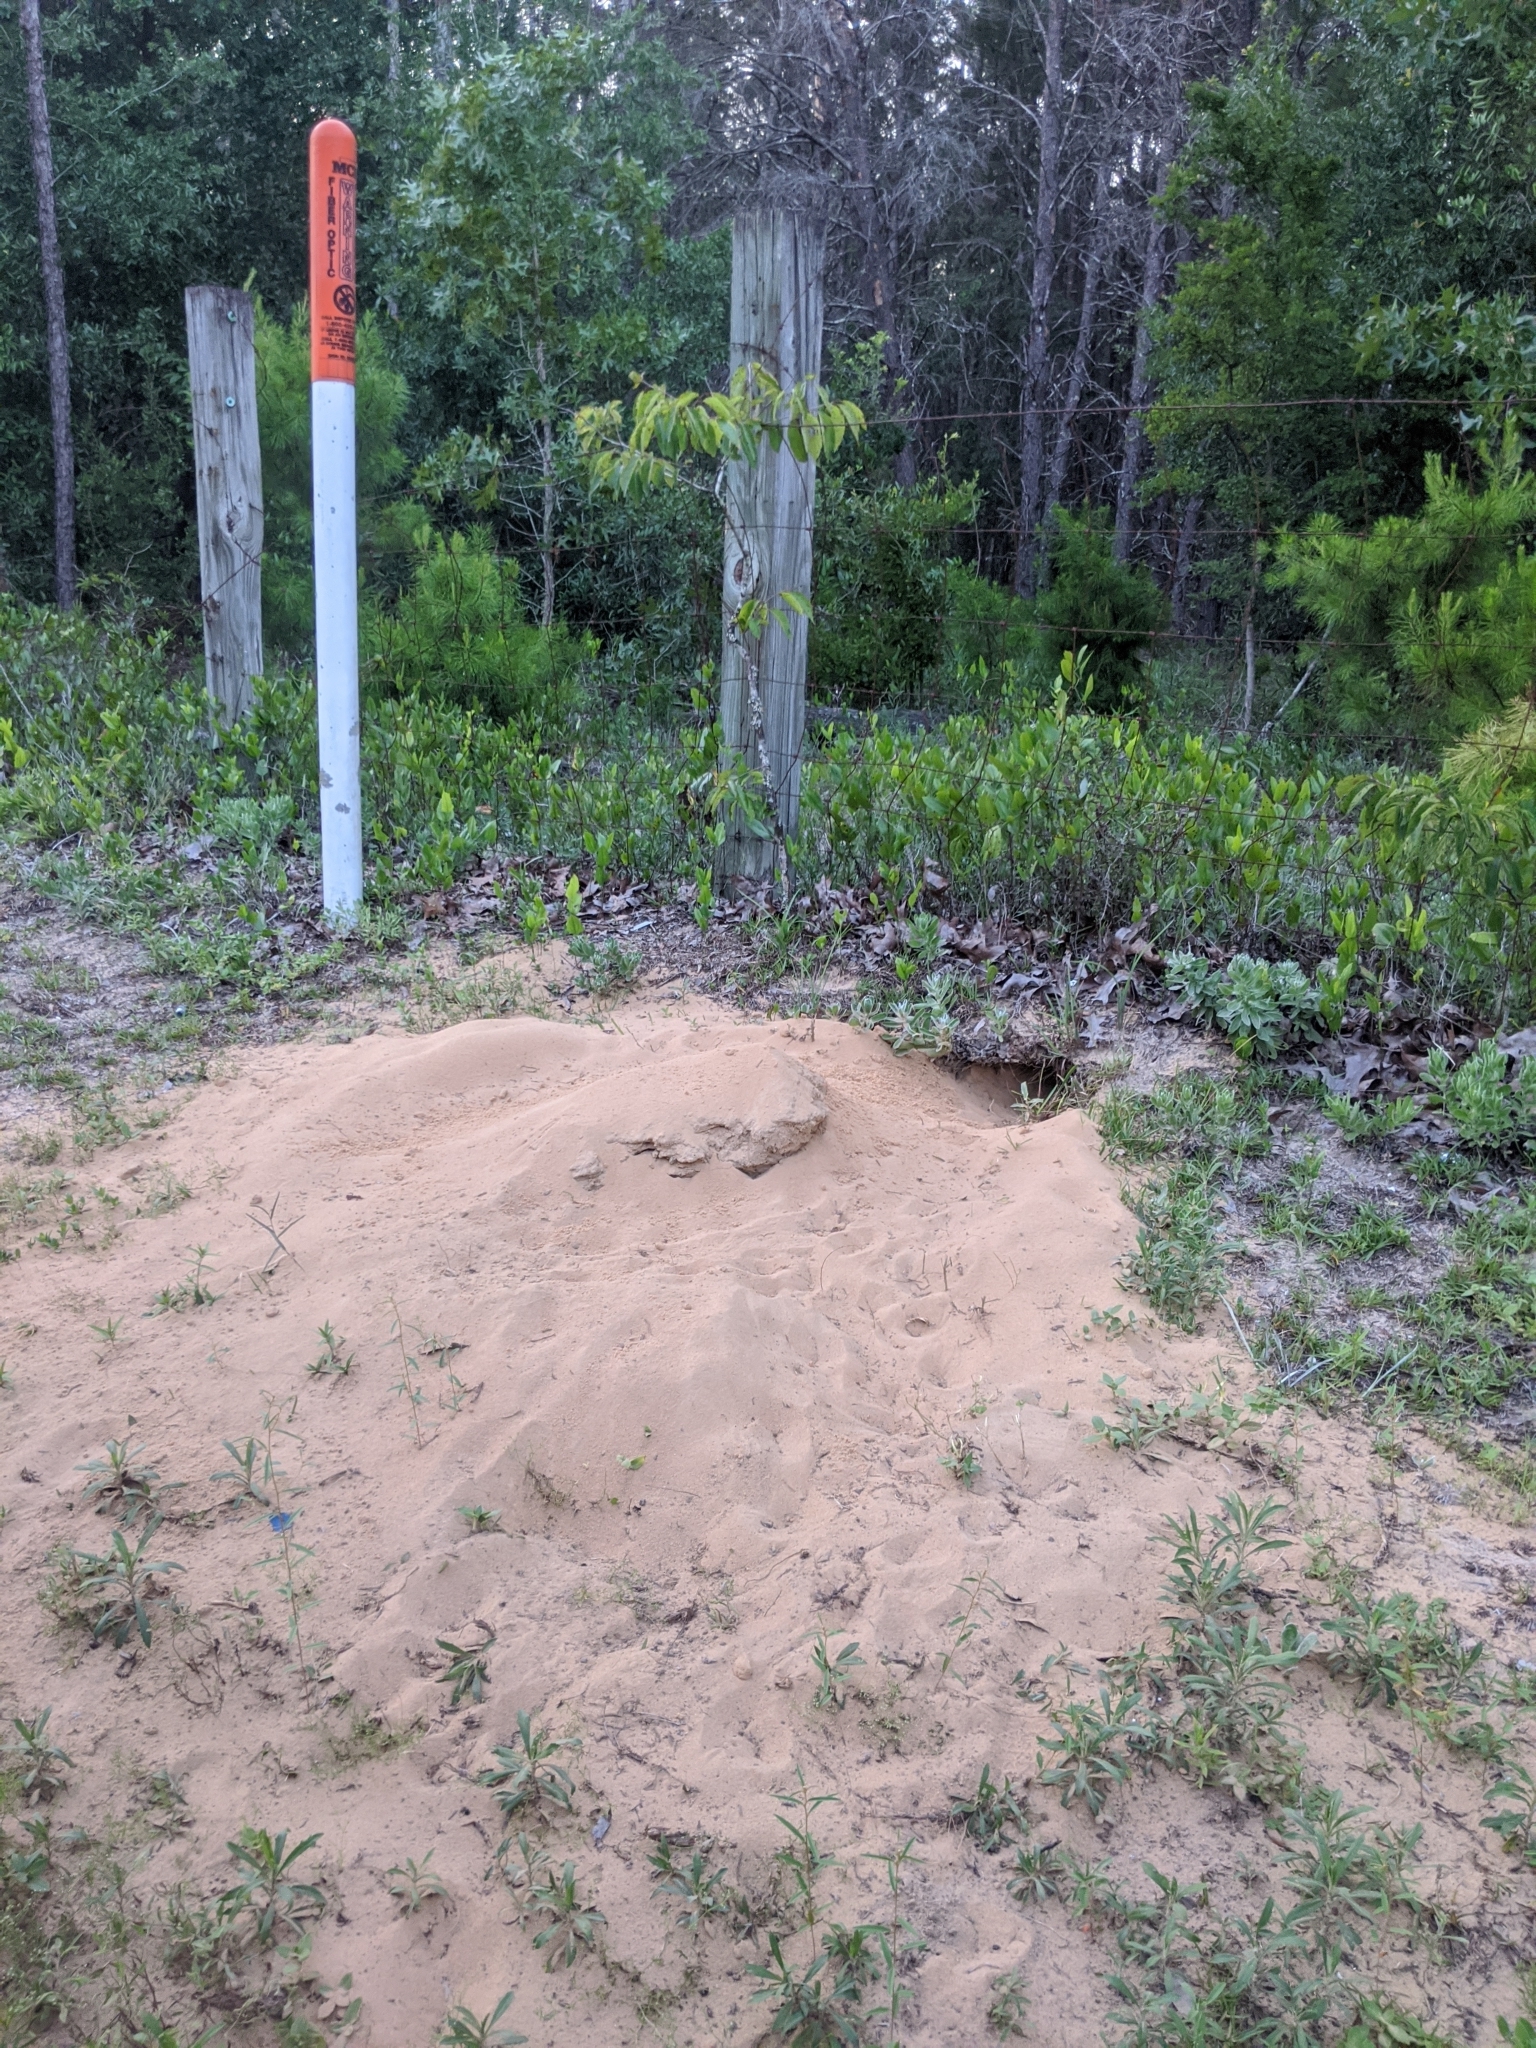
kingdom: Animalia
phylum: Chordata
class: Testudines
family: Testudinidae
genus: Gopherus
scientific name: Gopherus polyphemus
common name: Florida gopher tortoise
